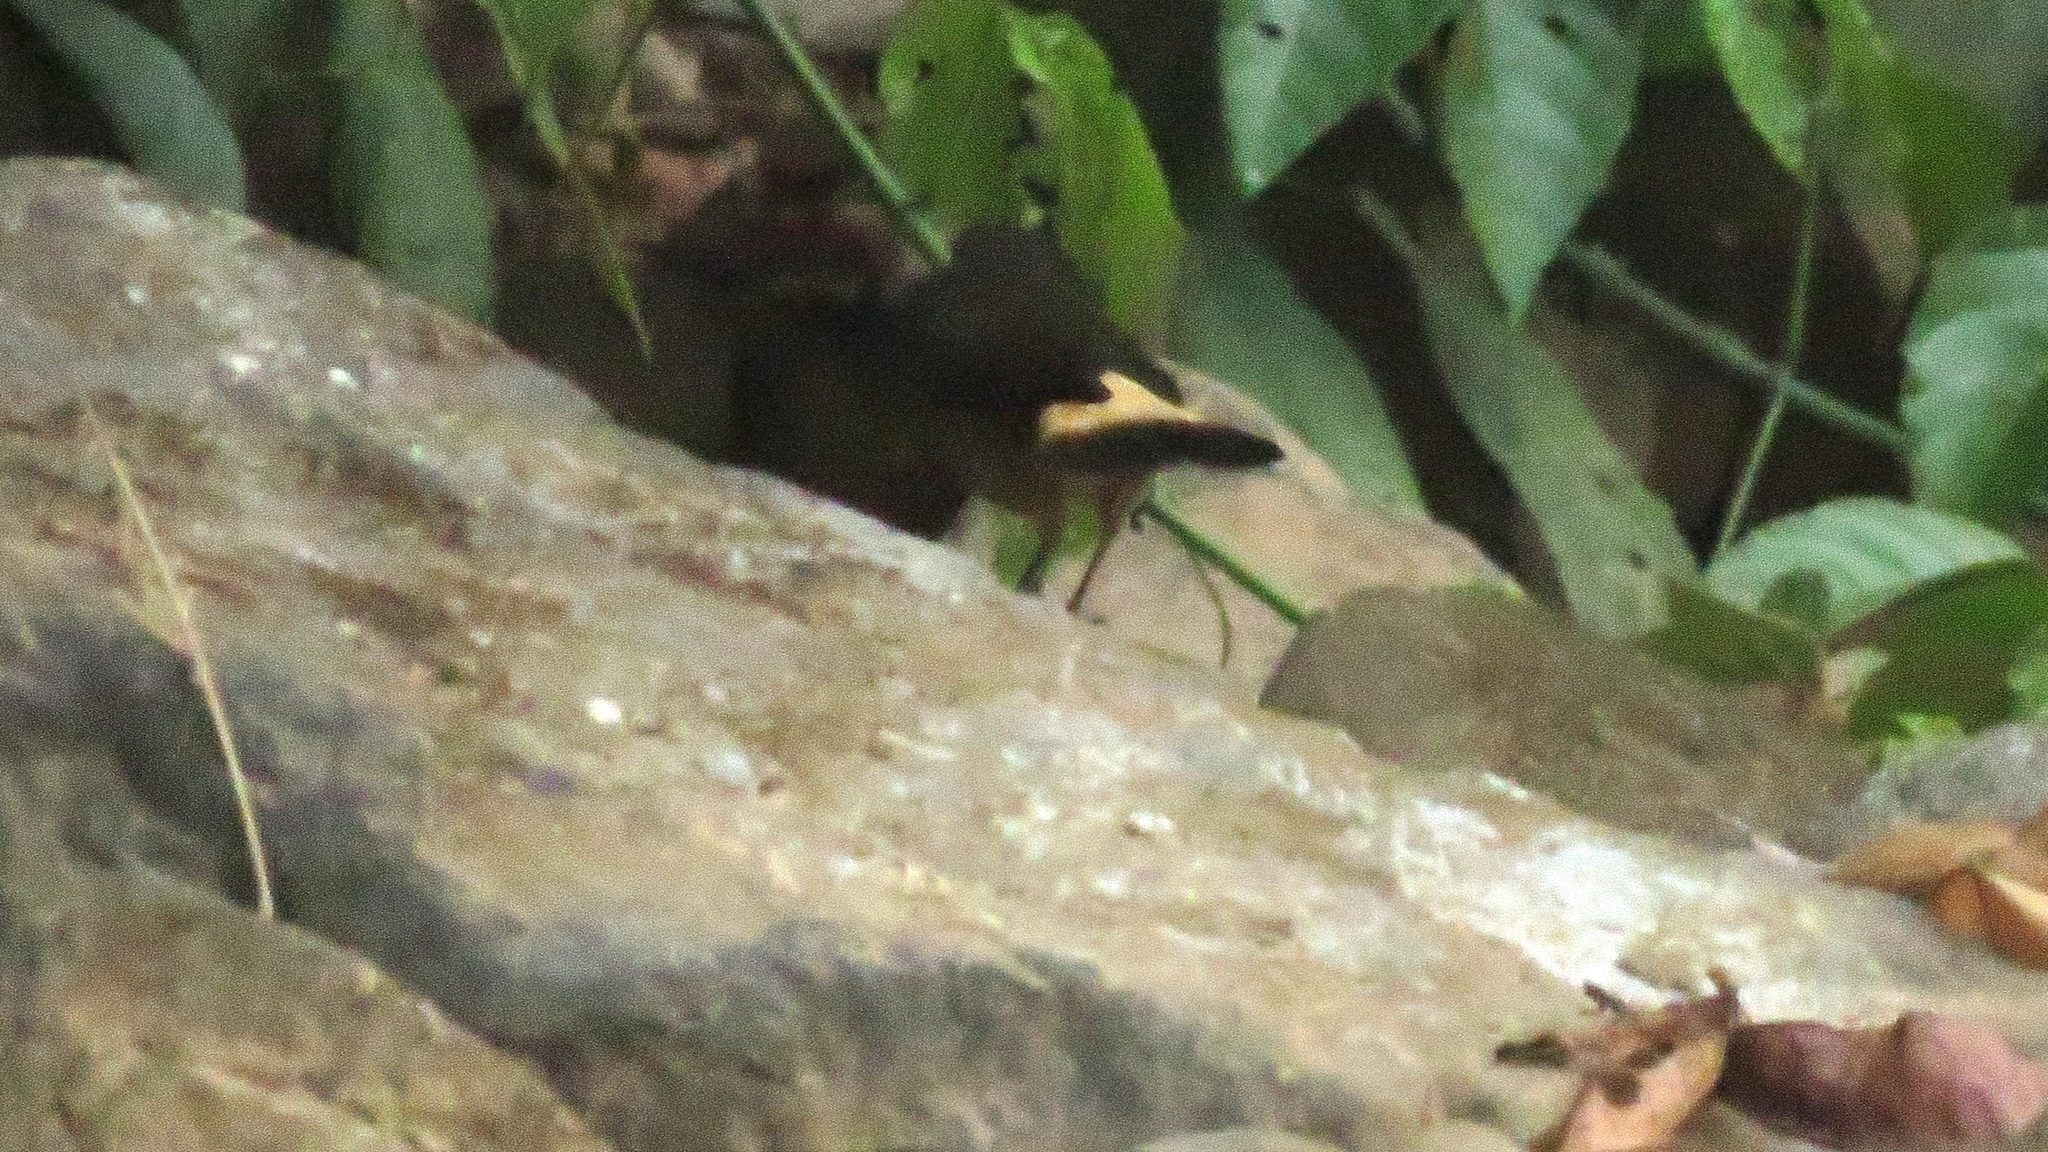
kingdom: Animalia
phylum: Chordata
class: Aves
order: Passeriformes
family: Parulidae
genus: Myiothlypis
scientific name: Myiothlypis fulvicauda
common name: Buff-rumped warbler
